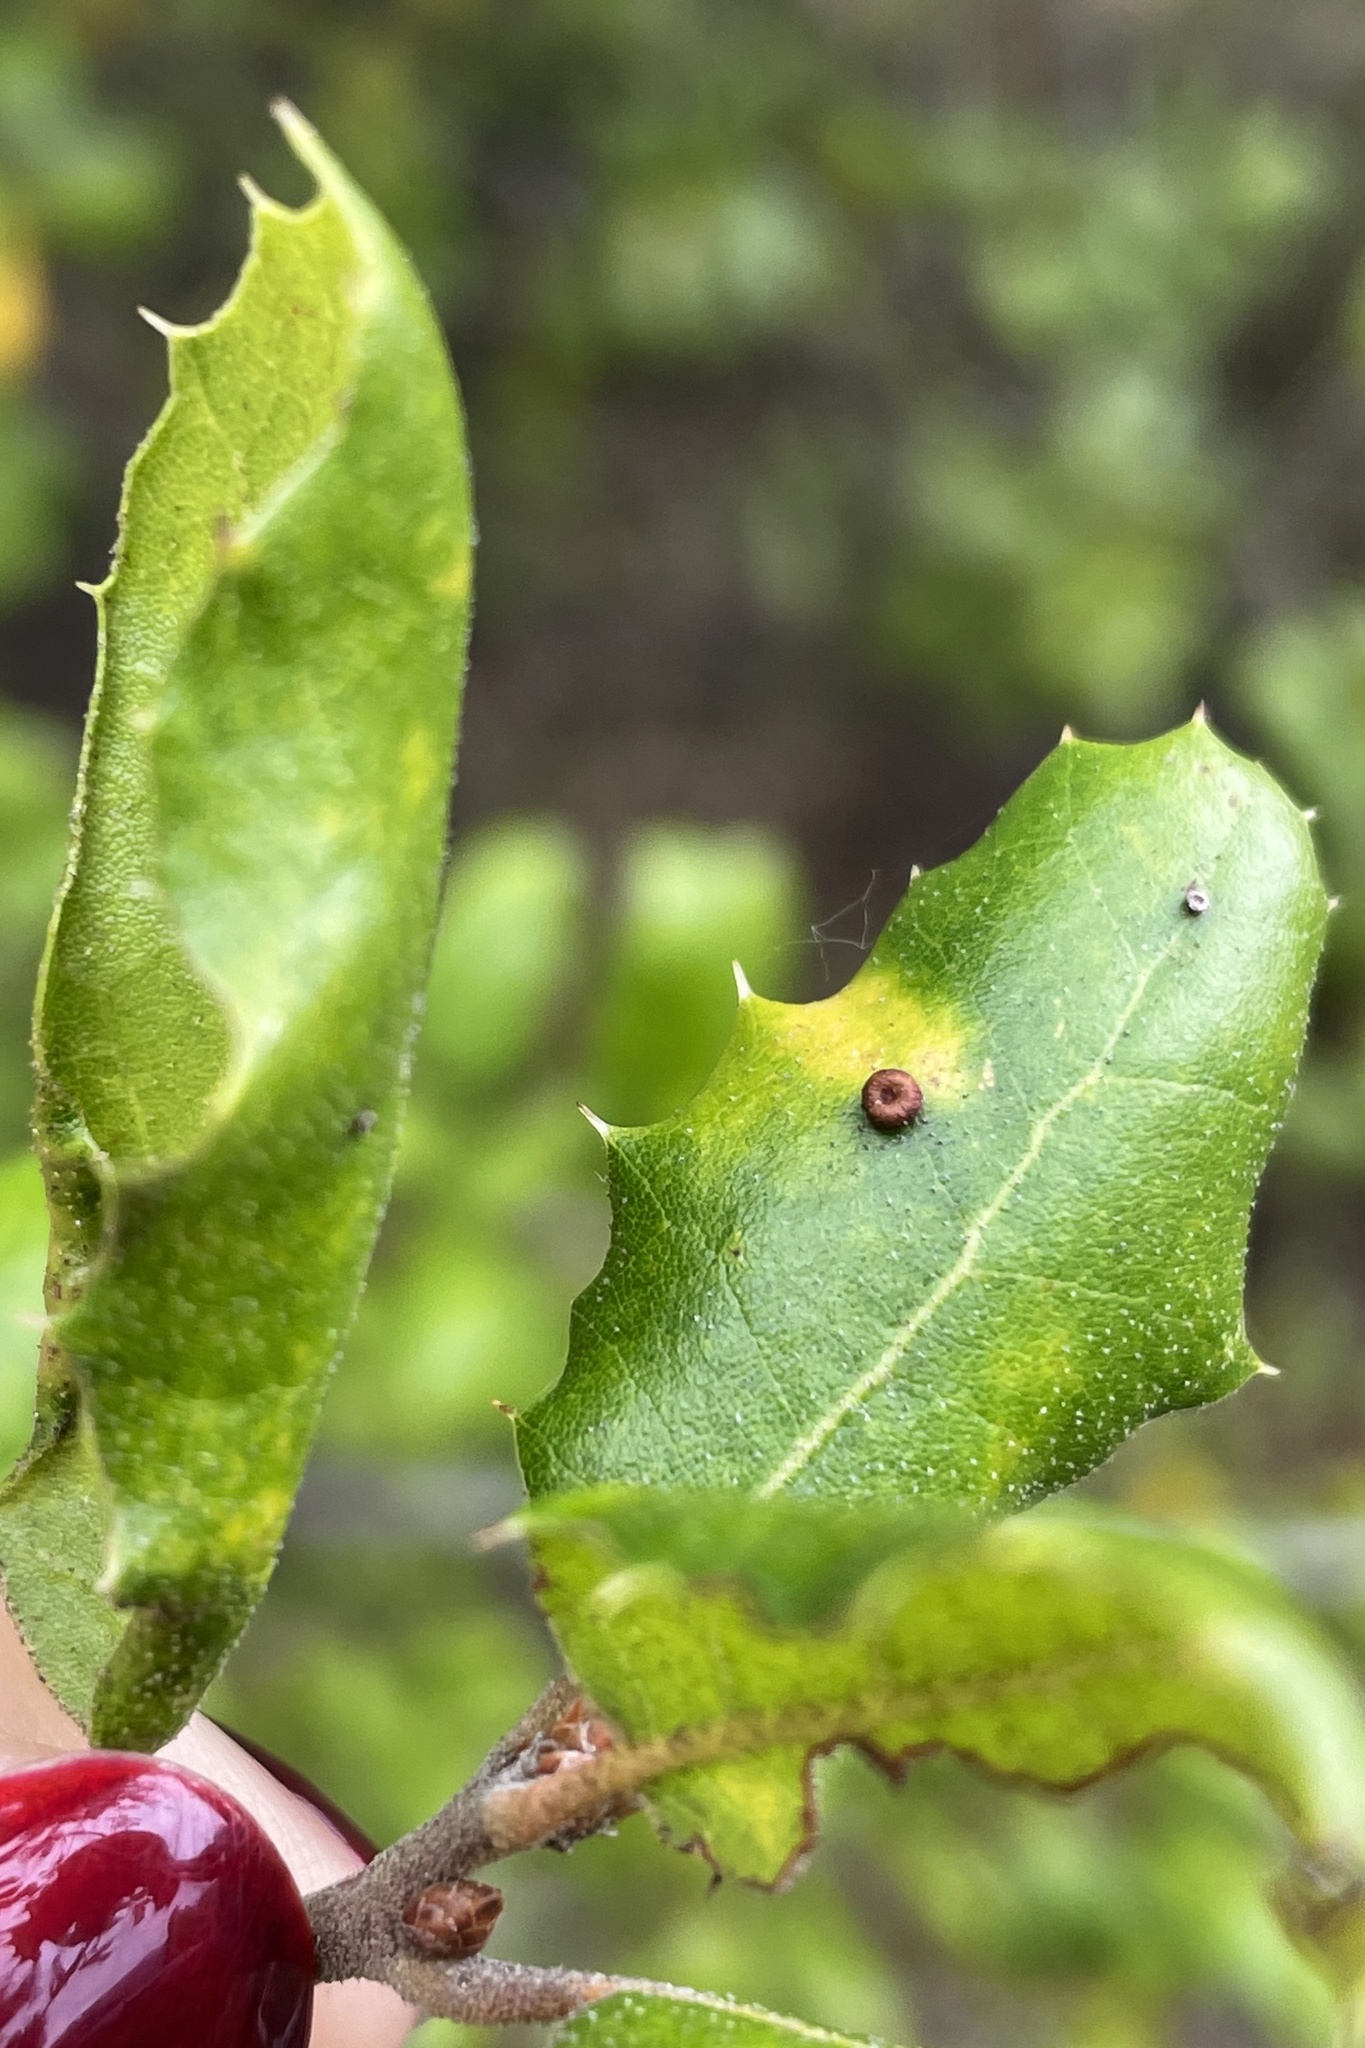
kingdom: Animalia
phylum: Arthropoda
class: Insecta
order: Hymenoptera
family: Cynipidae
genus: Dryocosmus
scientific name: Dryocosmus
